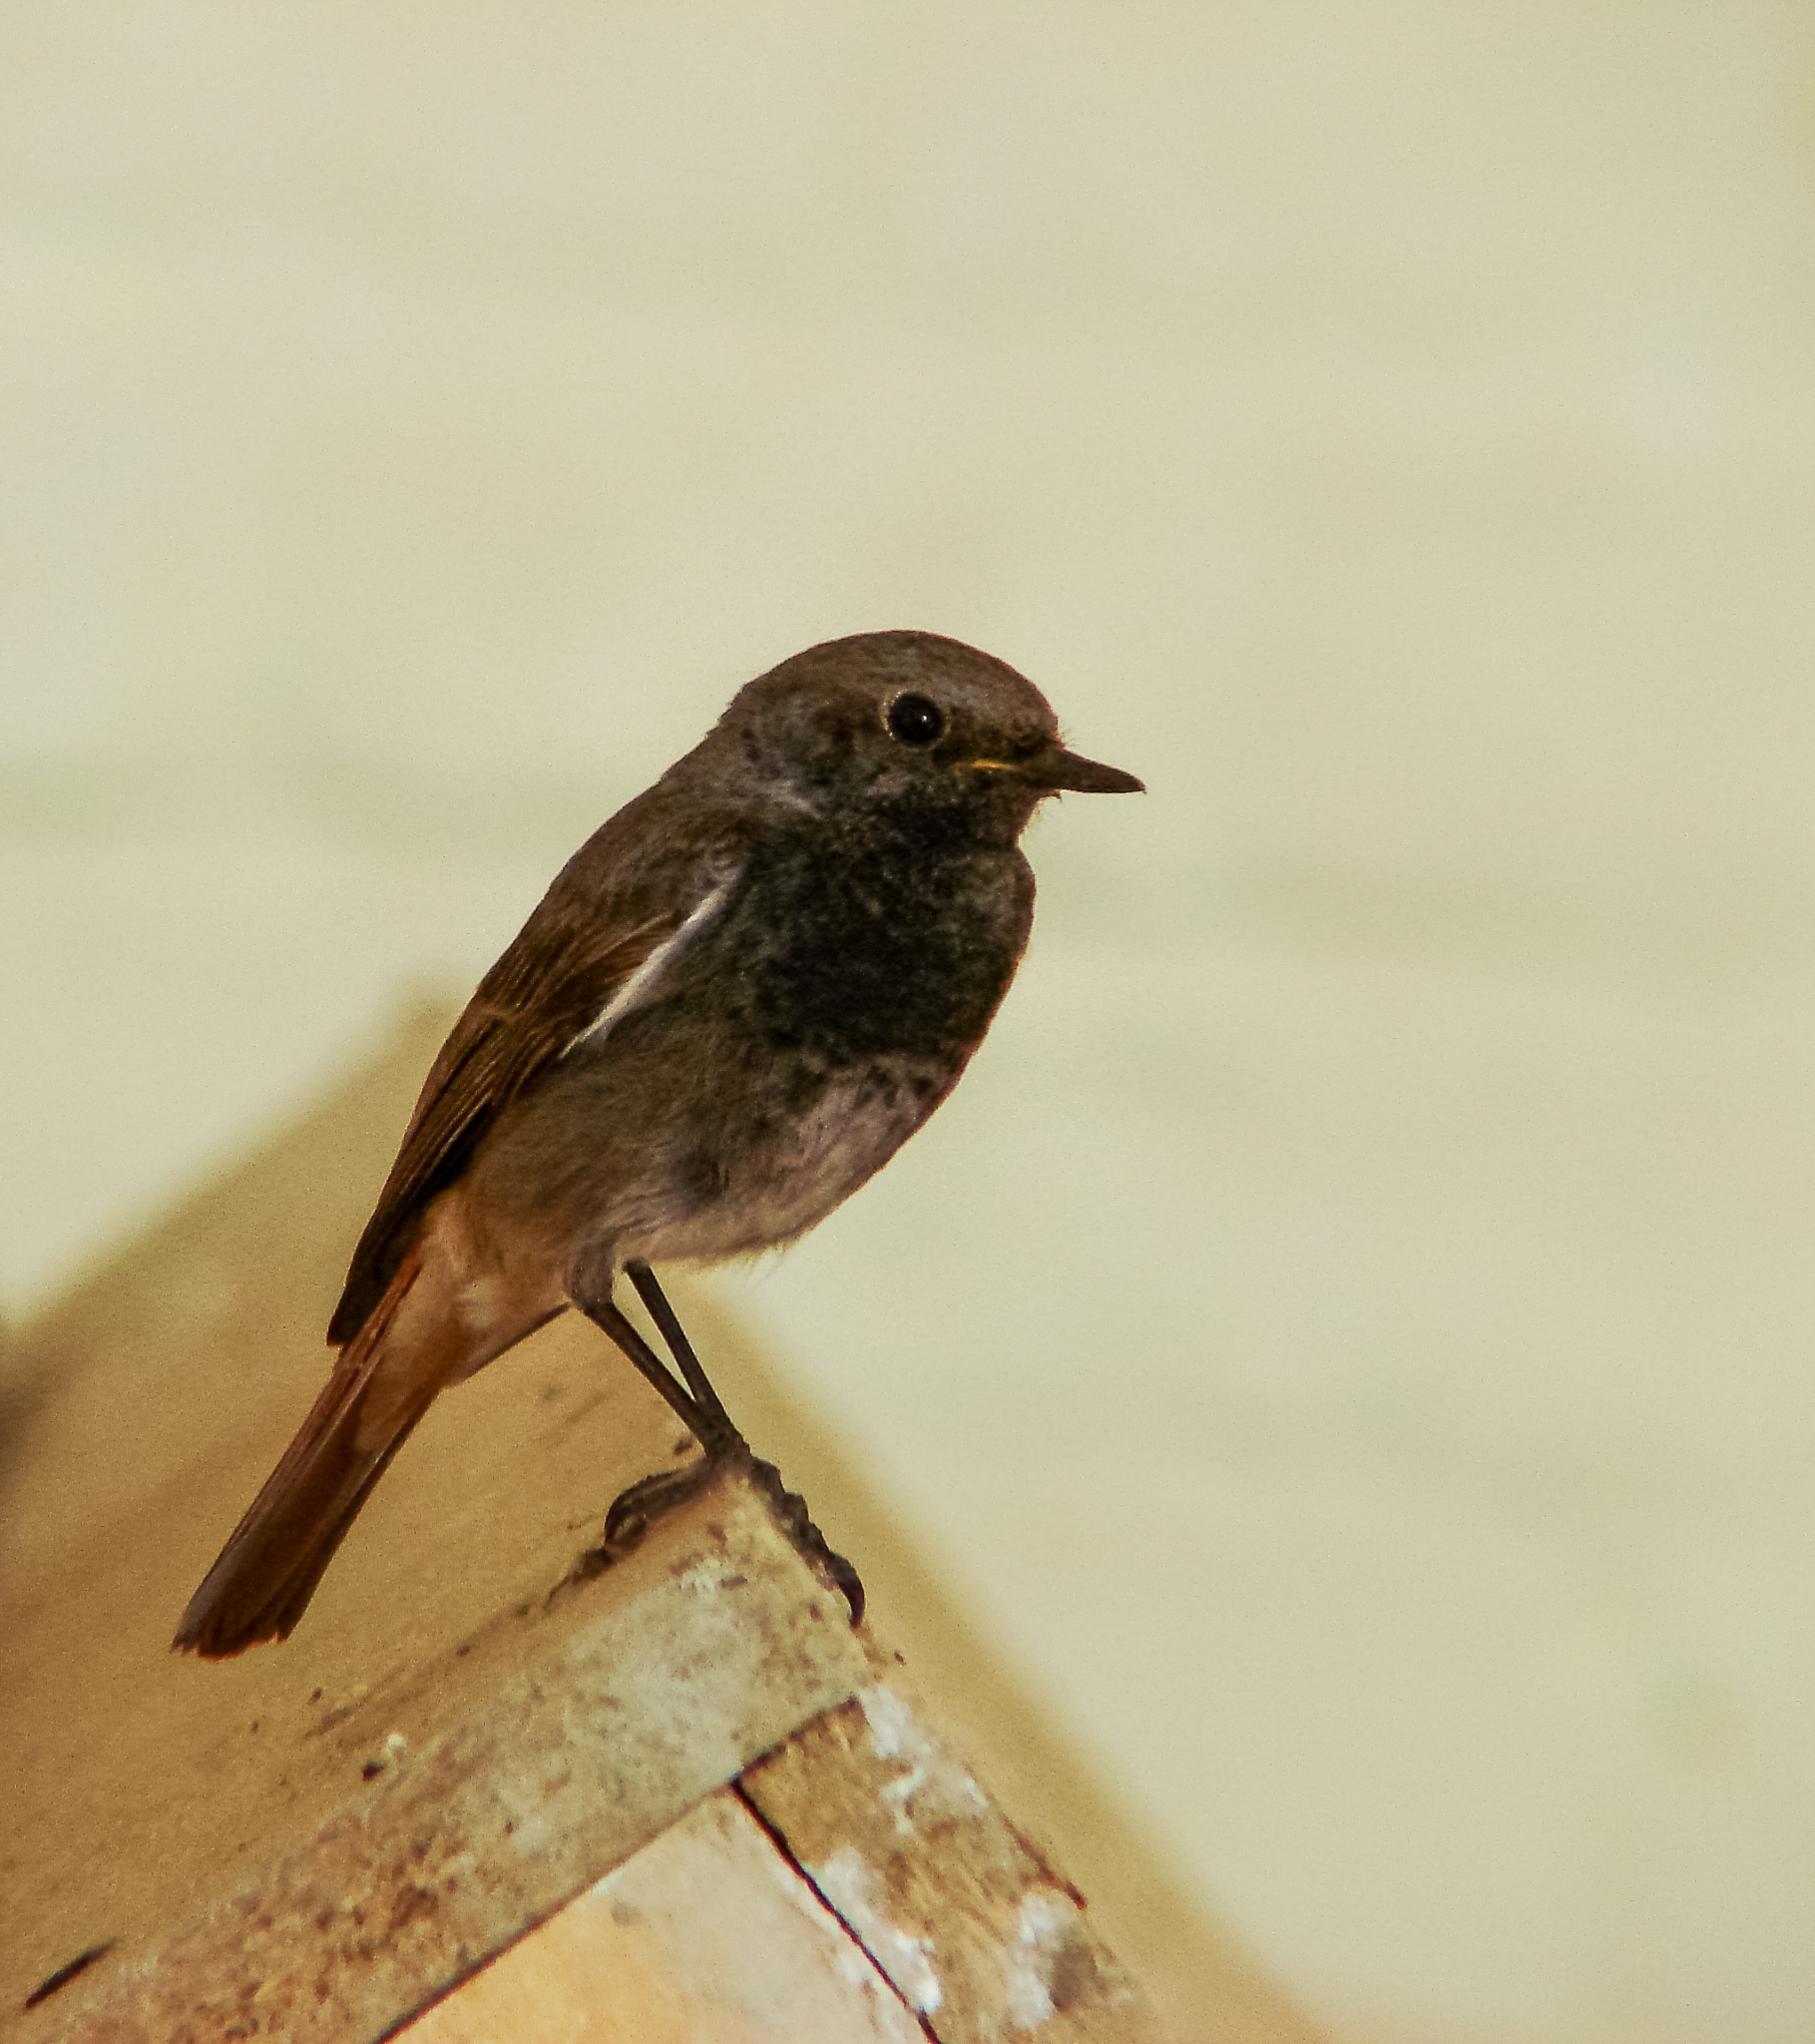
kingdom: Animalia
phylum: Chordata
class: Aves
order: Passeriformes
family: Muscicapidae
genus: Phoenicurus
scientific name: Phoenicurus ochruros
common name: Black redstart
